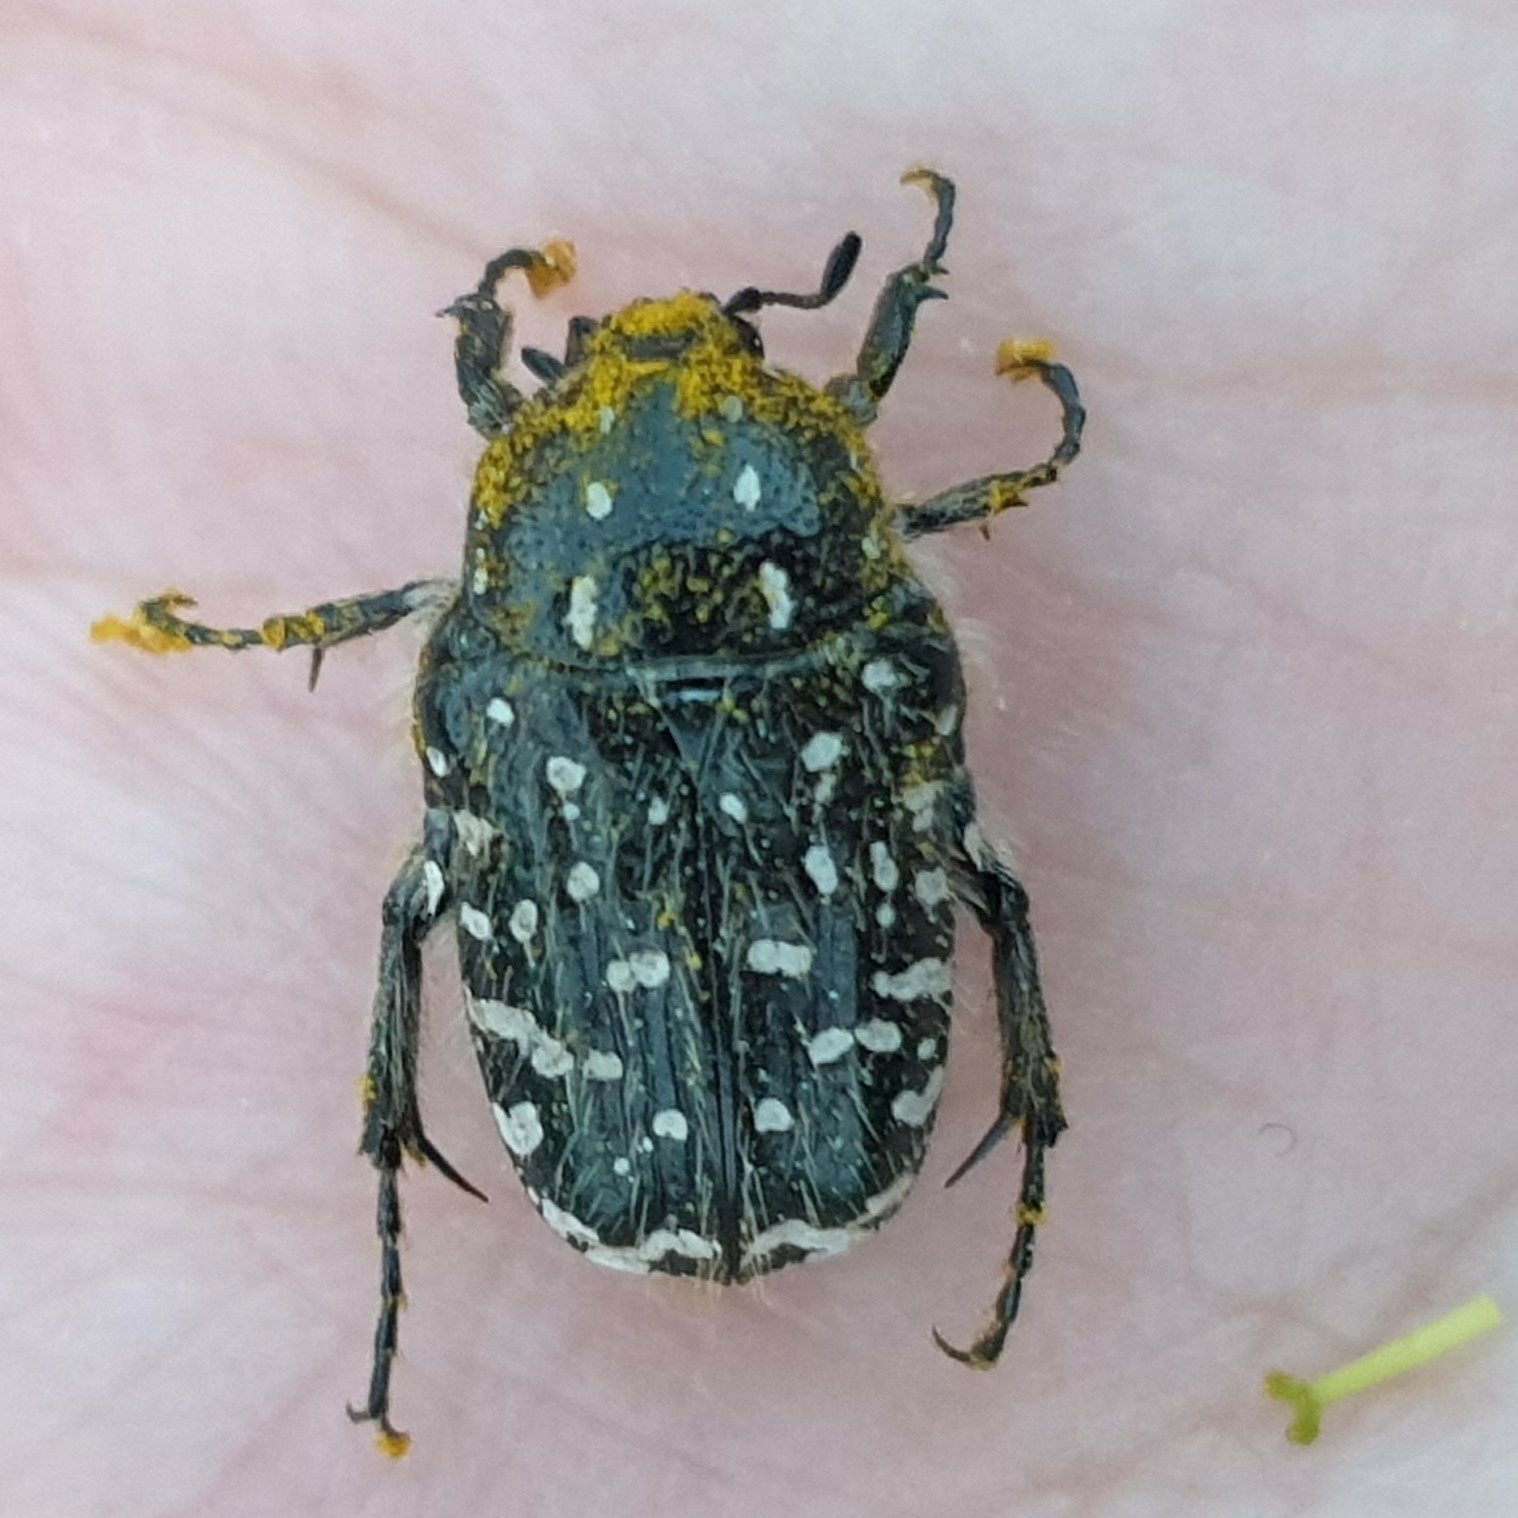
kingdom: Animalia
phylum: Arthropoda
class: Insecta
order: Coleoptera
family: Scarabaeidae
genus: Oxythyrea
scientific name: Oxythyrea funesta
